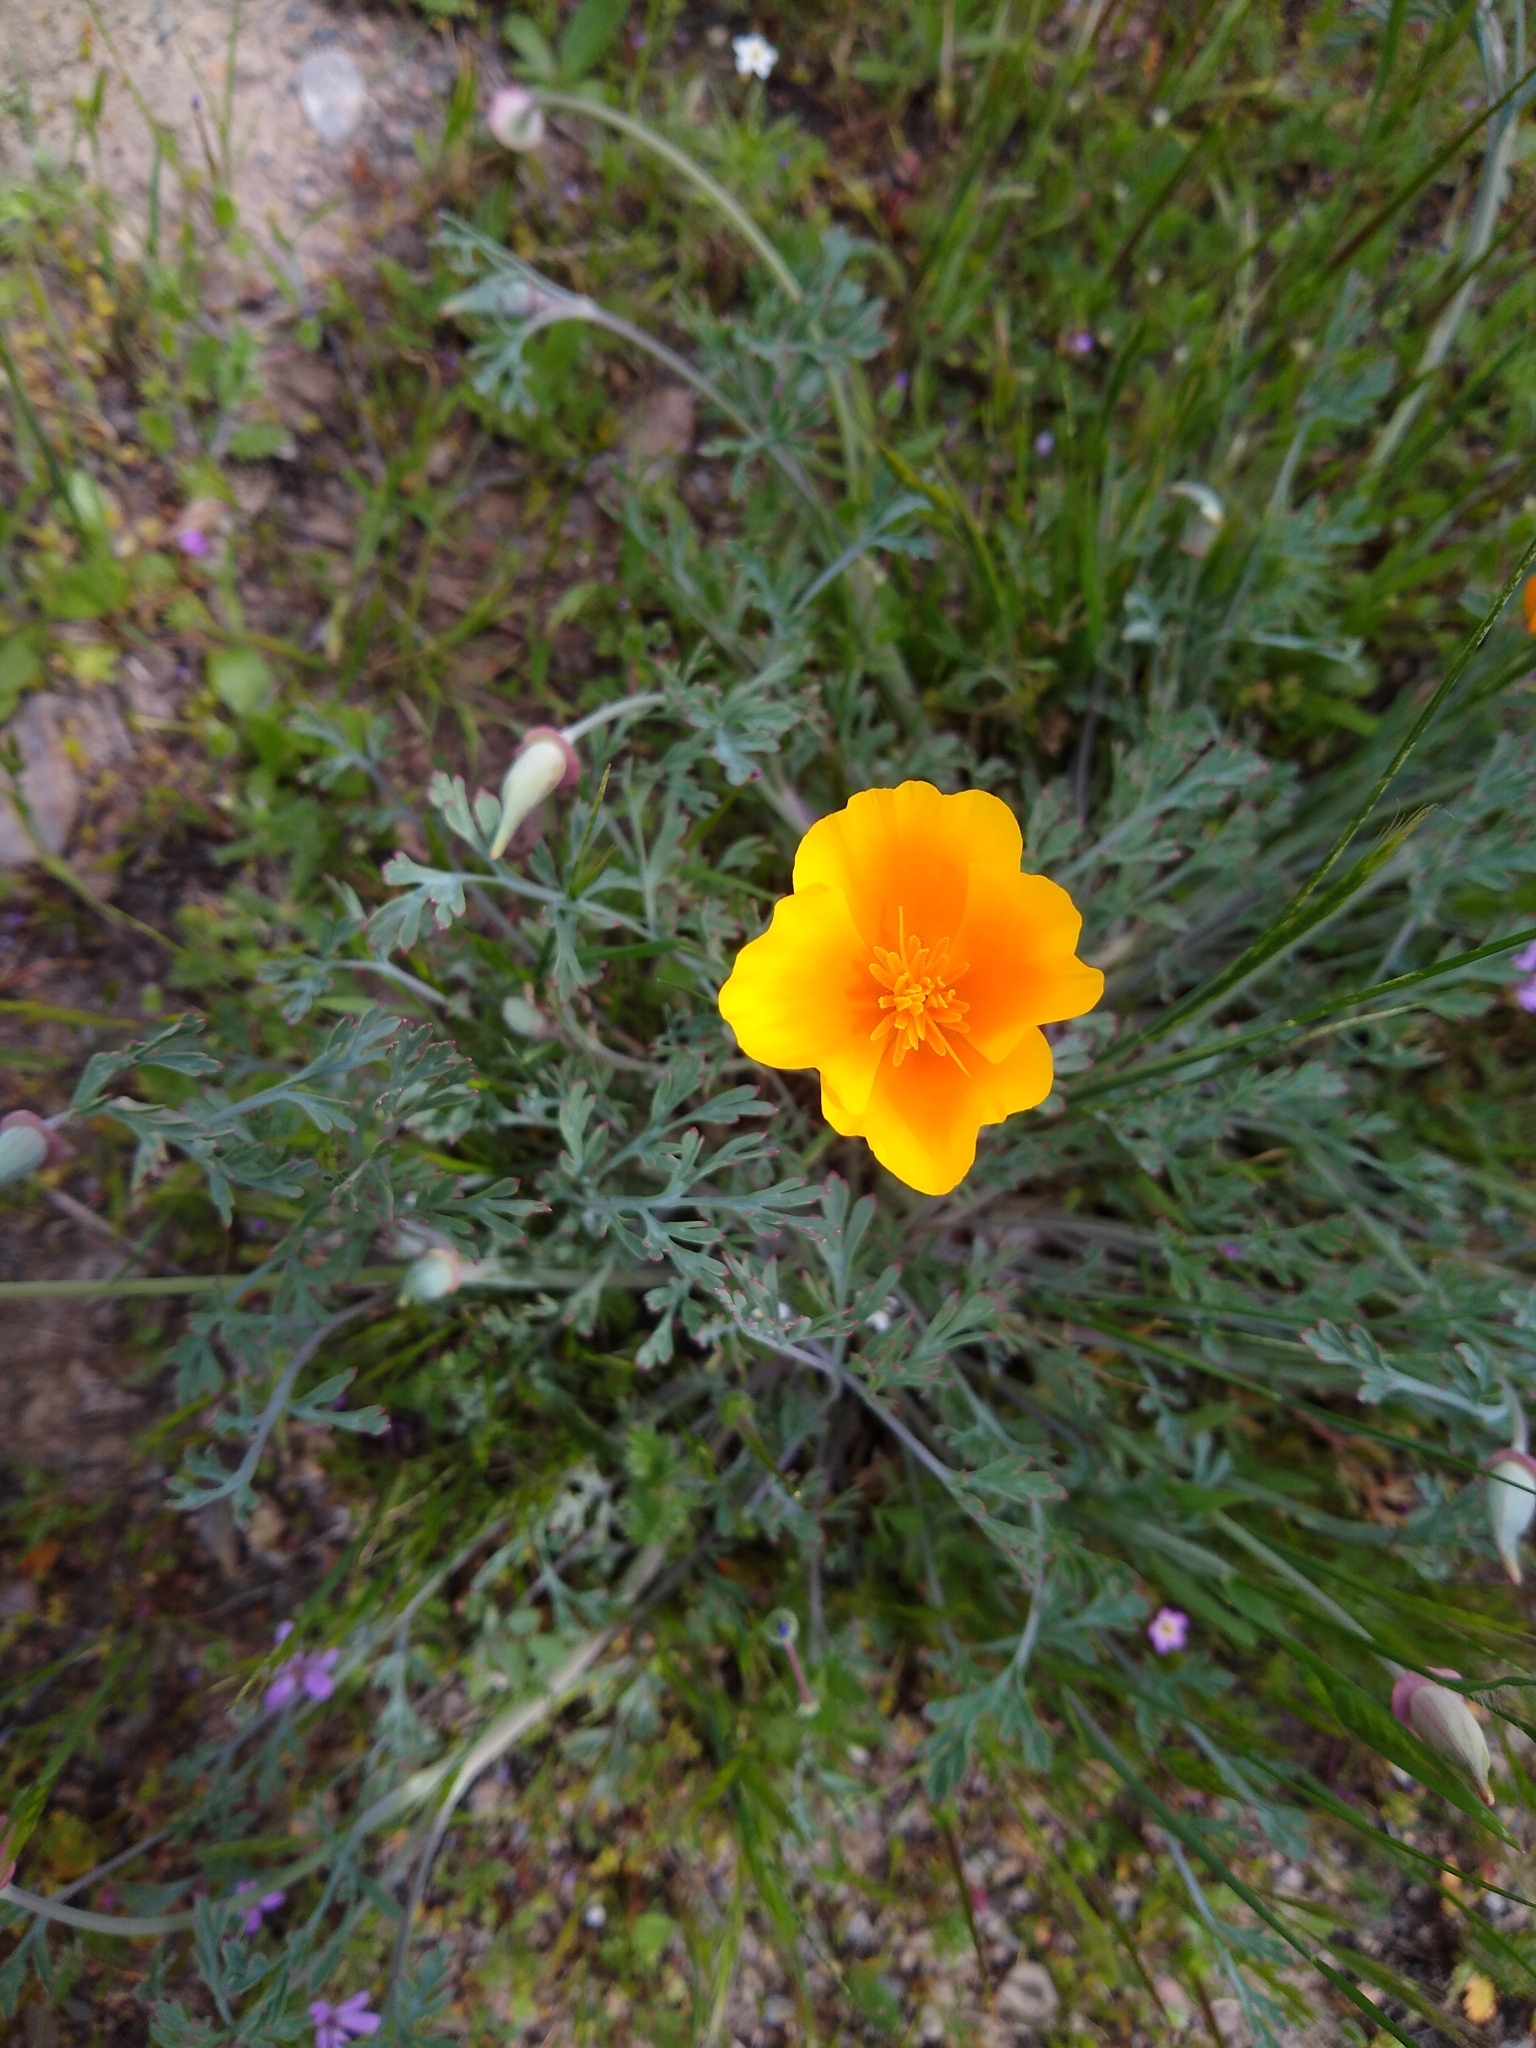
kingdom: Plantae
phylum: Tracheophyta
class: Magnoliopsida
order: Ranunculales
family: Papaveraceae
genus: Eschscholzia
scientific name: Eschscholzia californica
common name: California poppy
